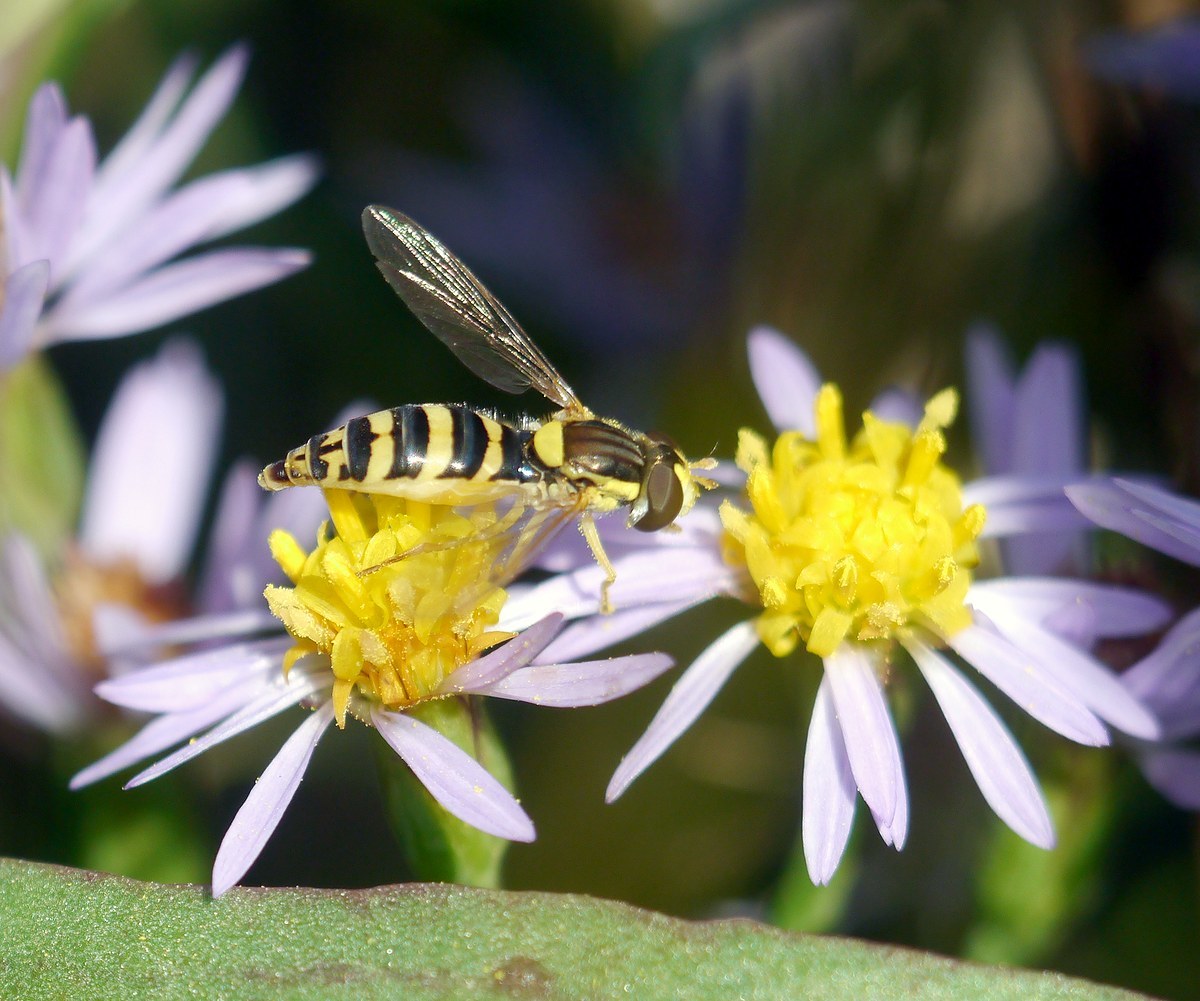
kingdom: Animalia
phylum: Arthropoda
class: Insecta
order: Diptera
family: Syrphidae
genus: Sphaerophoria
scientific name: Sphaerophoria
